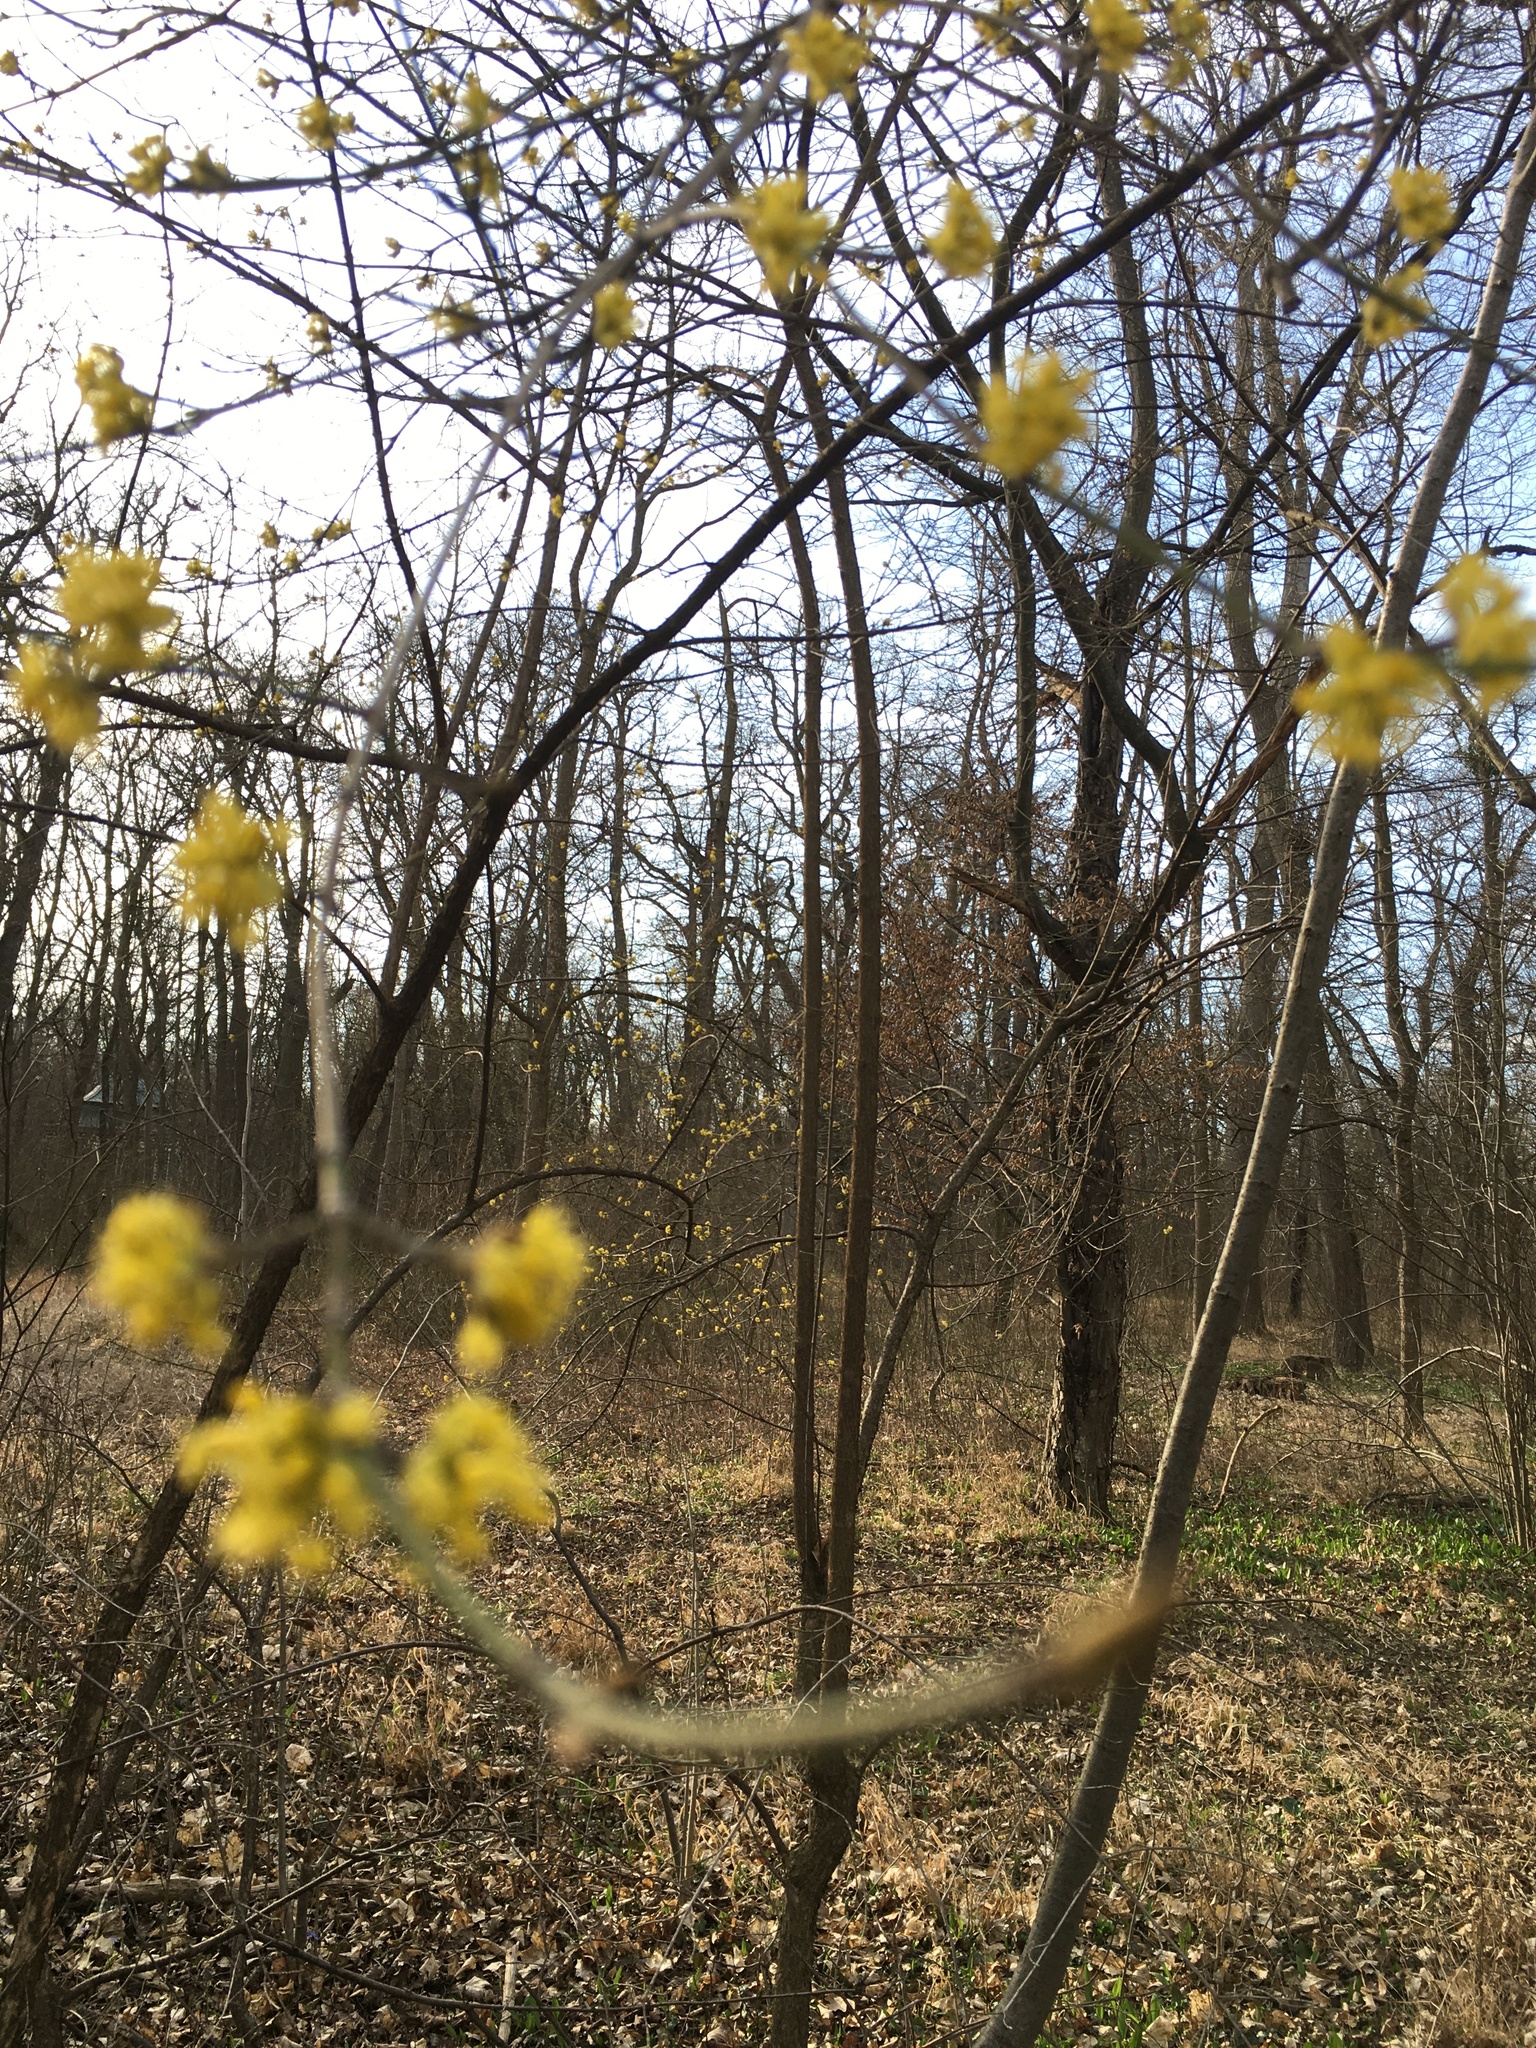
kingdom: Plantae
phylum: Tracheophyta
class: Magnoliopsida
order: Cornales
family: Cornaceae
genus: Cornus
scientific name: Cornus mas
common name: Cornelian-cherry
